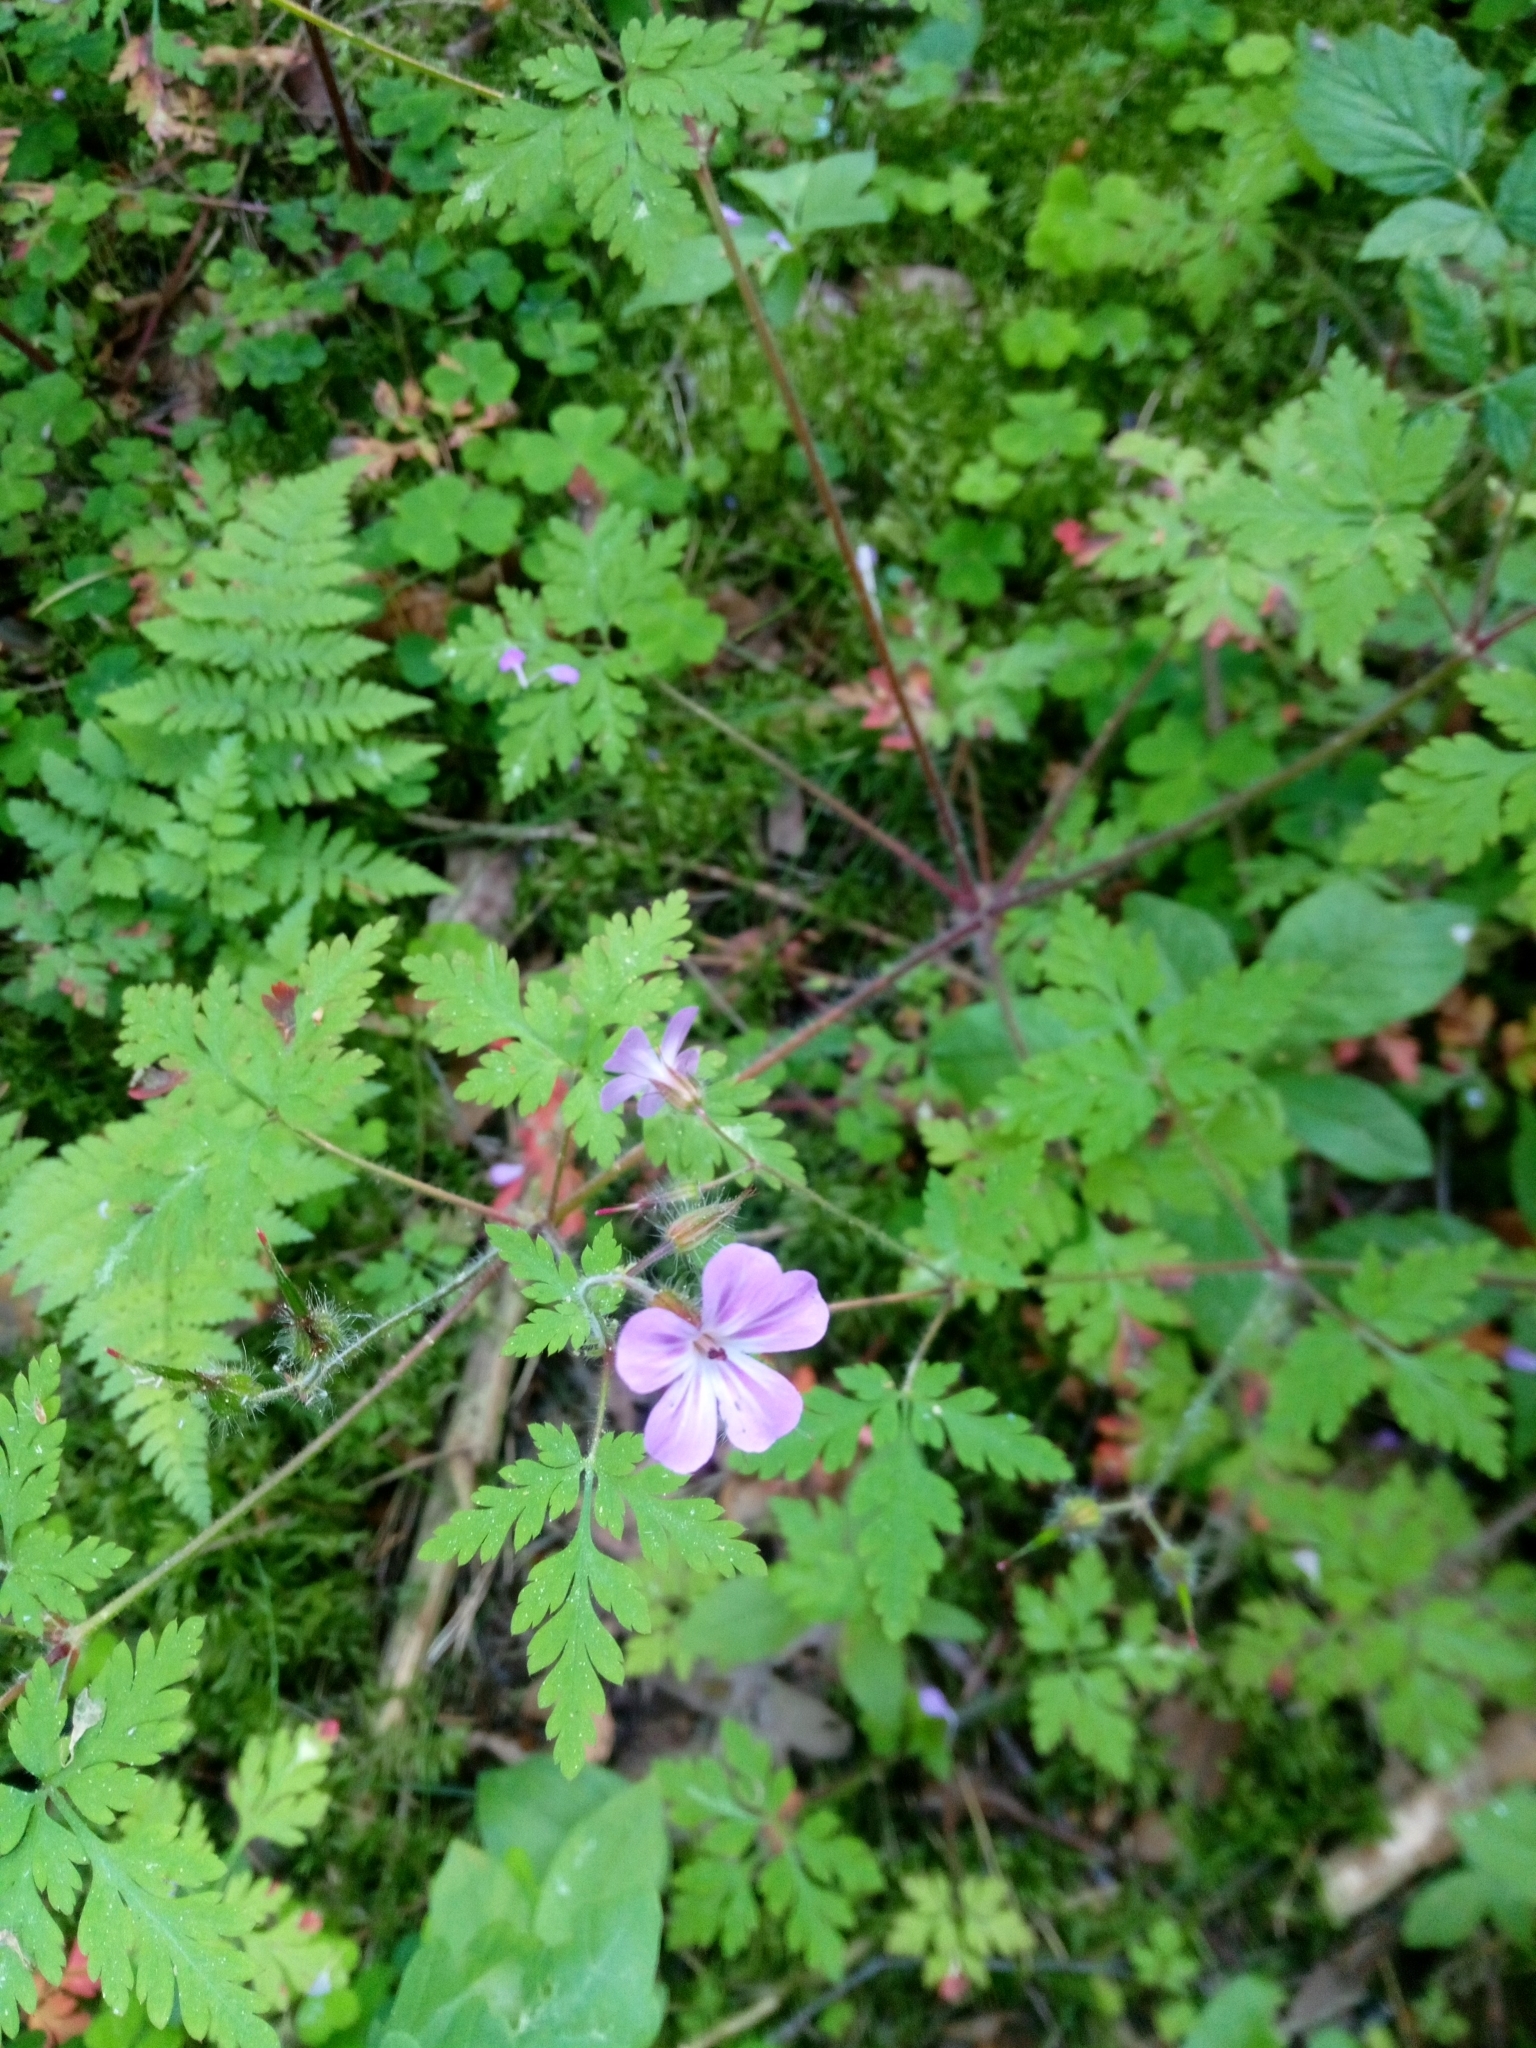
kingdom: Plantae
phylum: Tracheophyta
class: Magnoliopsida
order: Geraniales
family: Geraniaceae
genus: Geranium
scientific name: Geranium robertianum
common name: Herb-robert
